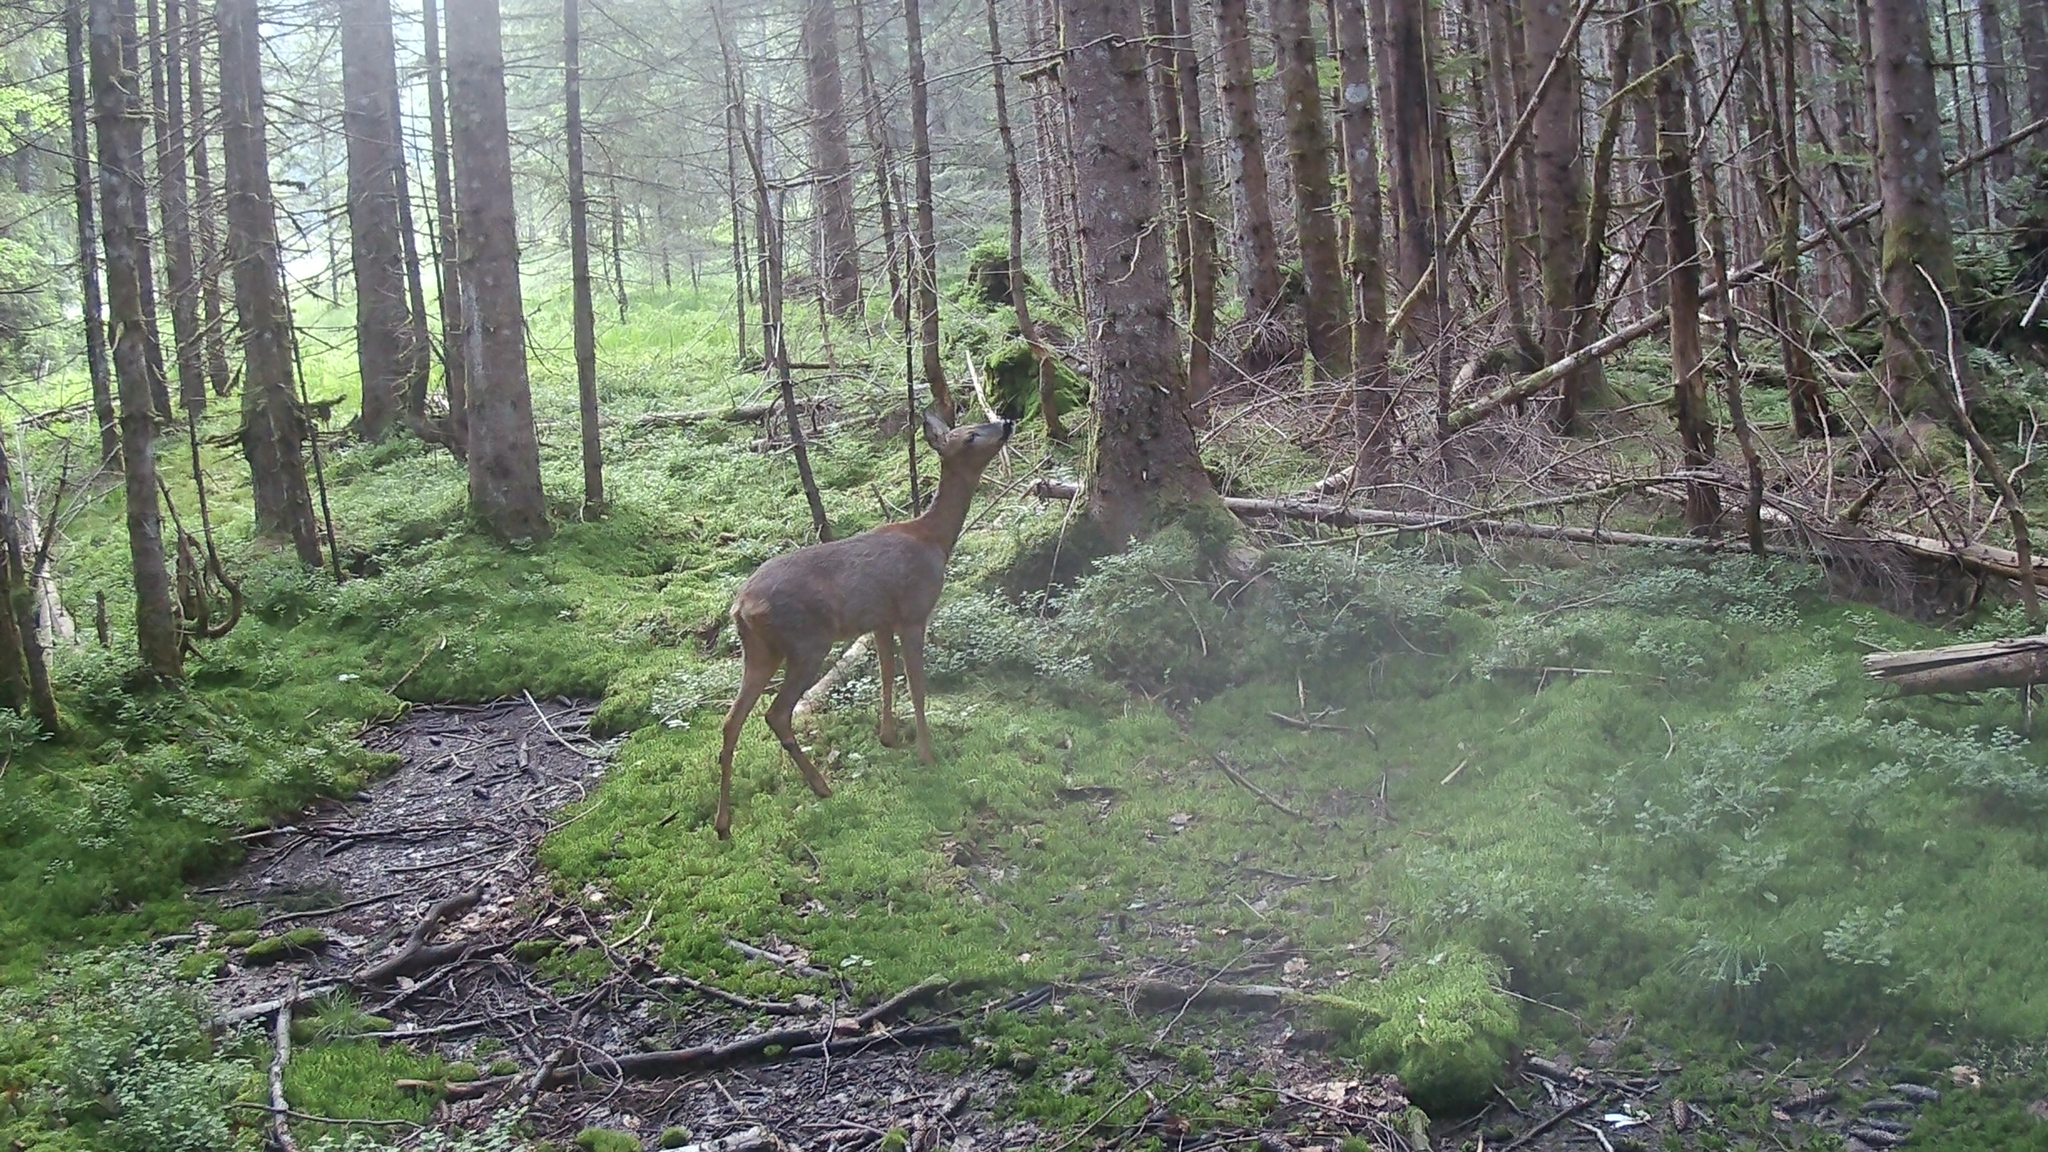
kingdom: Animalia
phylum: Chordata
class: Mammalia
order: Artiodactyla
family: Cervidae
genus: Capreolus
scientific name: Capreolus capreolus
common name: Western roe deer
